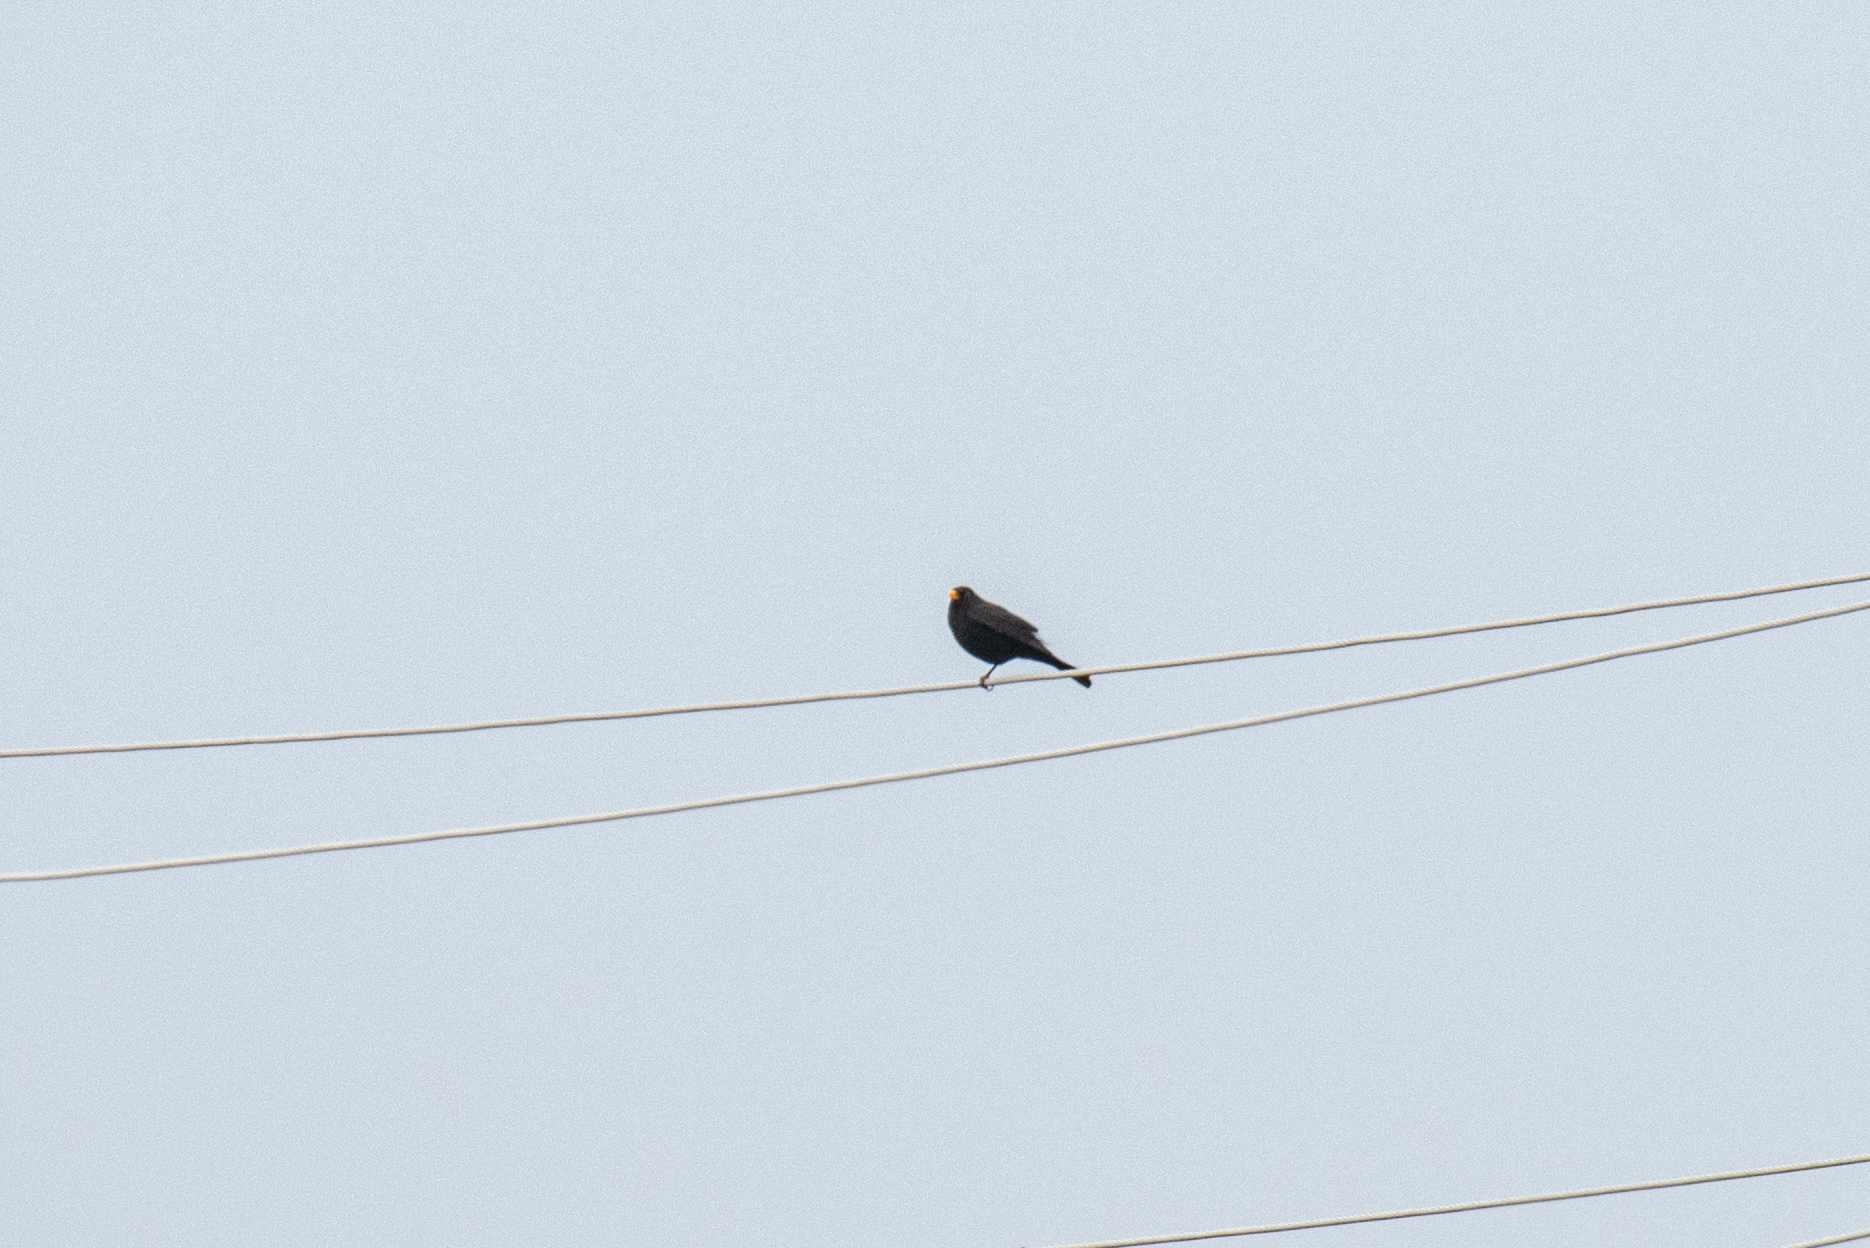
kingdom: Animalia
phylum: Chordata
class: Aves
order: Passeriformes
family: Turdidae
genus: Turdus
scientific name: Turdus merula
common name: Common blackbird
